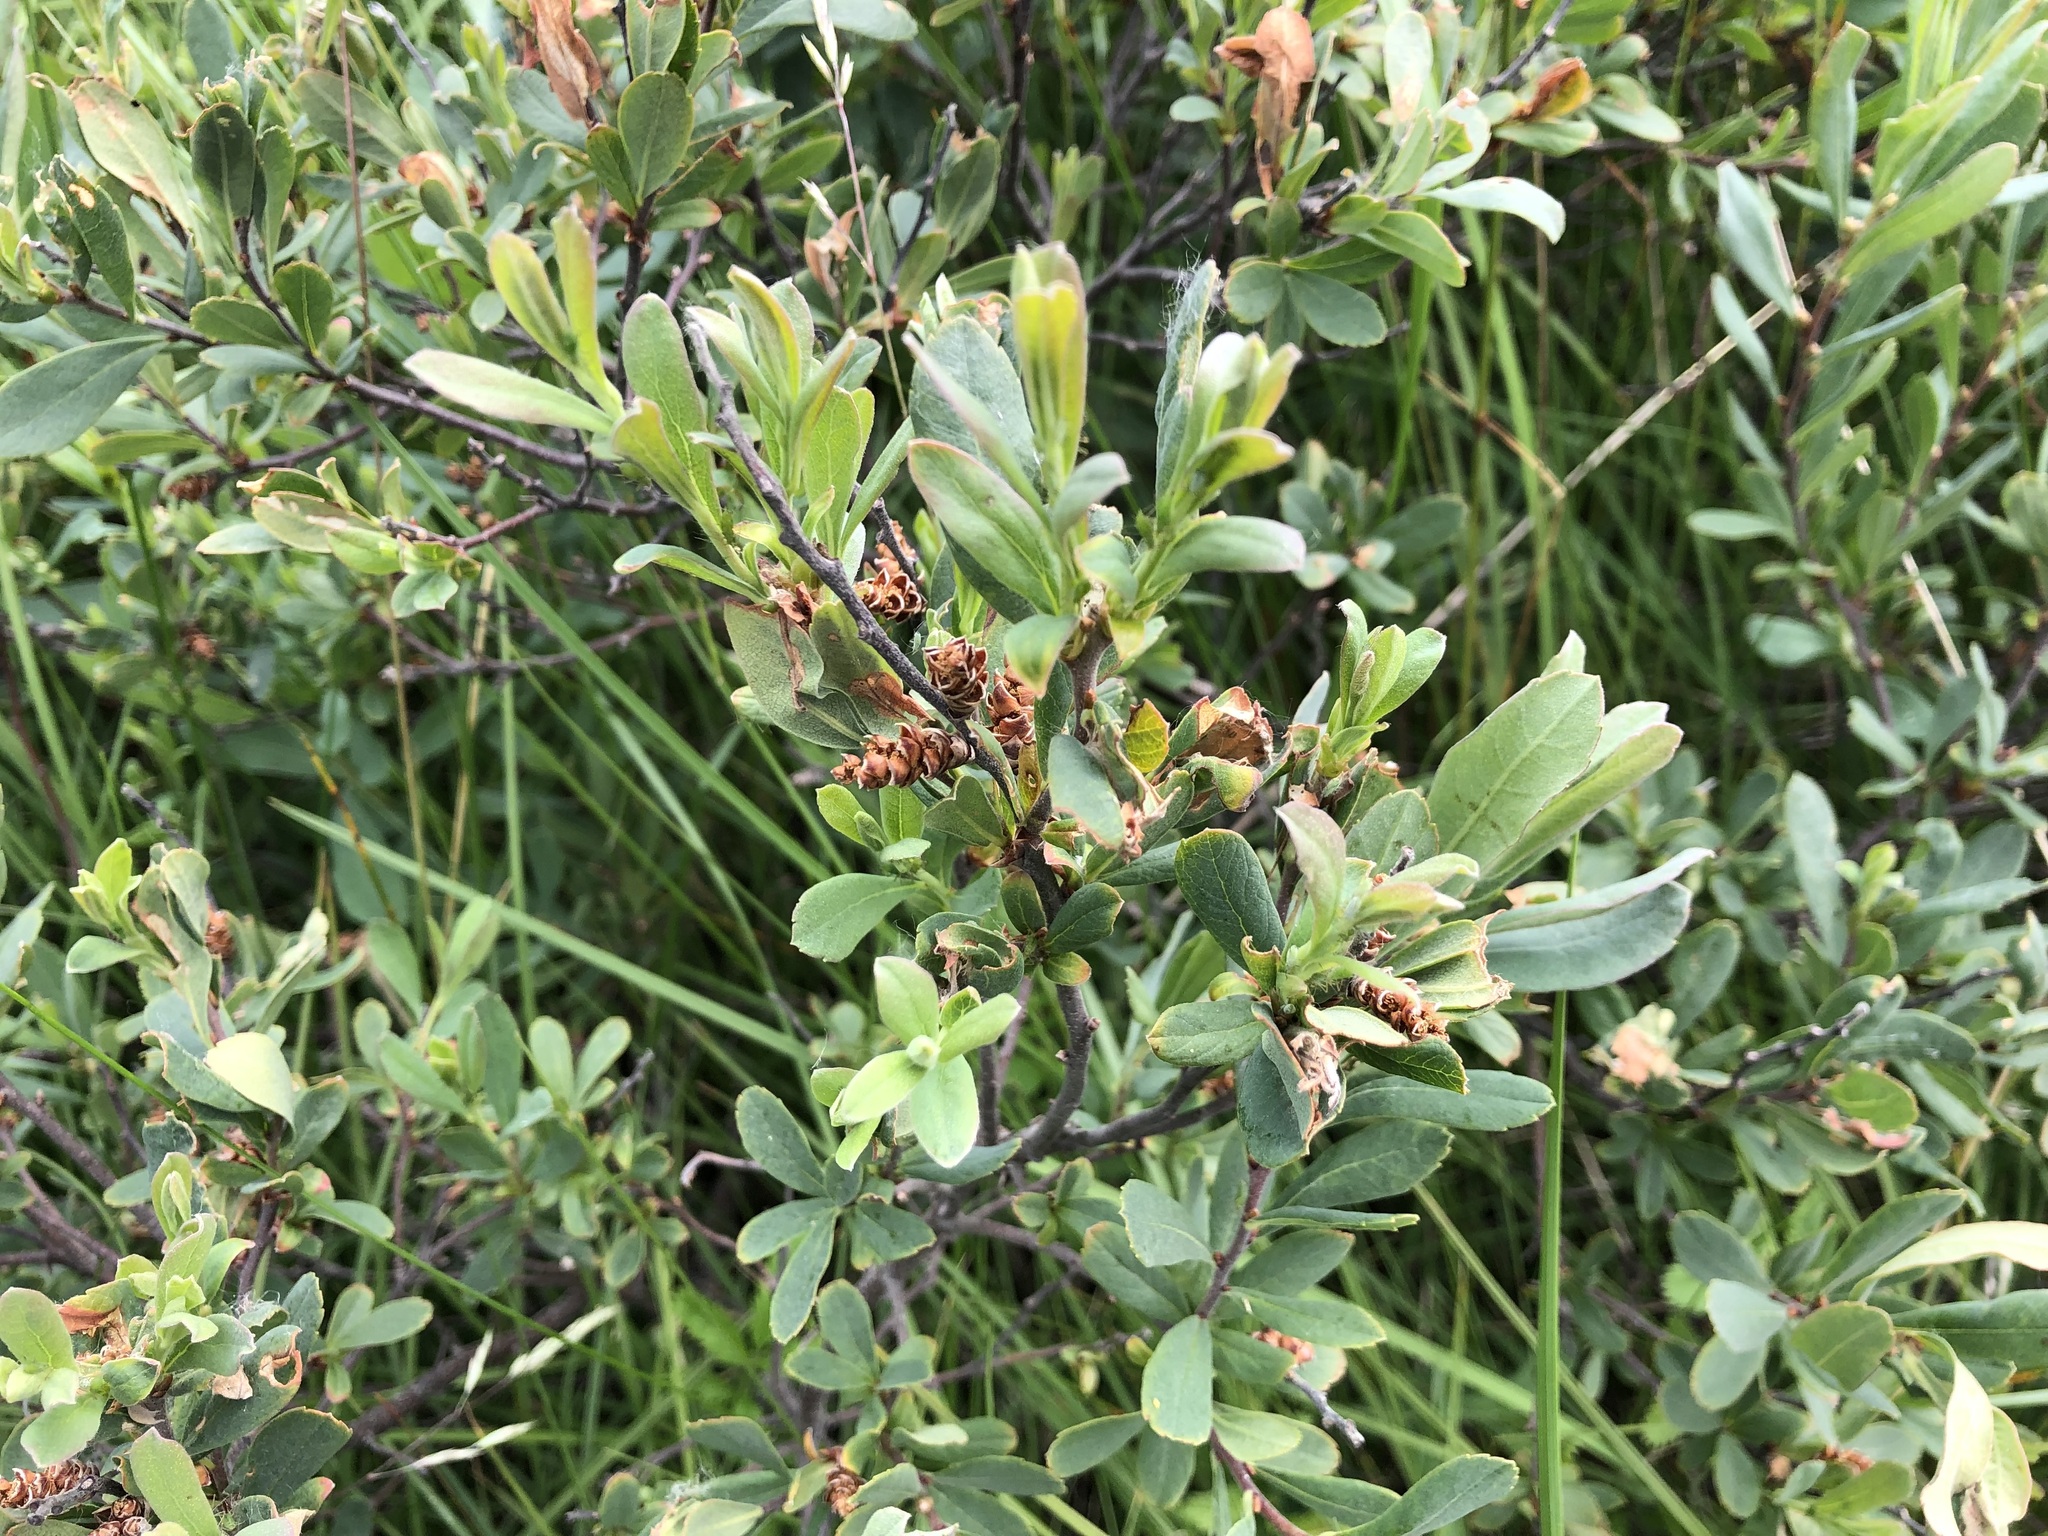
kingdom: Plantae
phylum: Tracheophyta
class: Magnoliopsida
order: Fagales
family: Myricaceae
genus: Myrica
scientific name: Myrica gale
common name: Sweet gale
